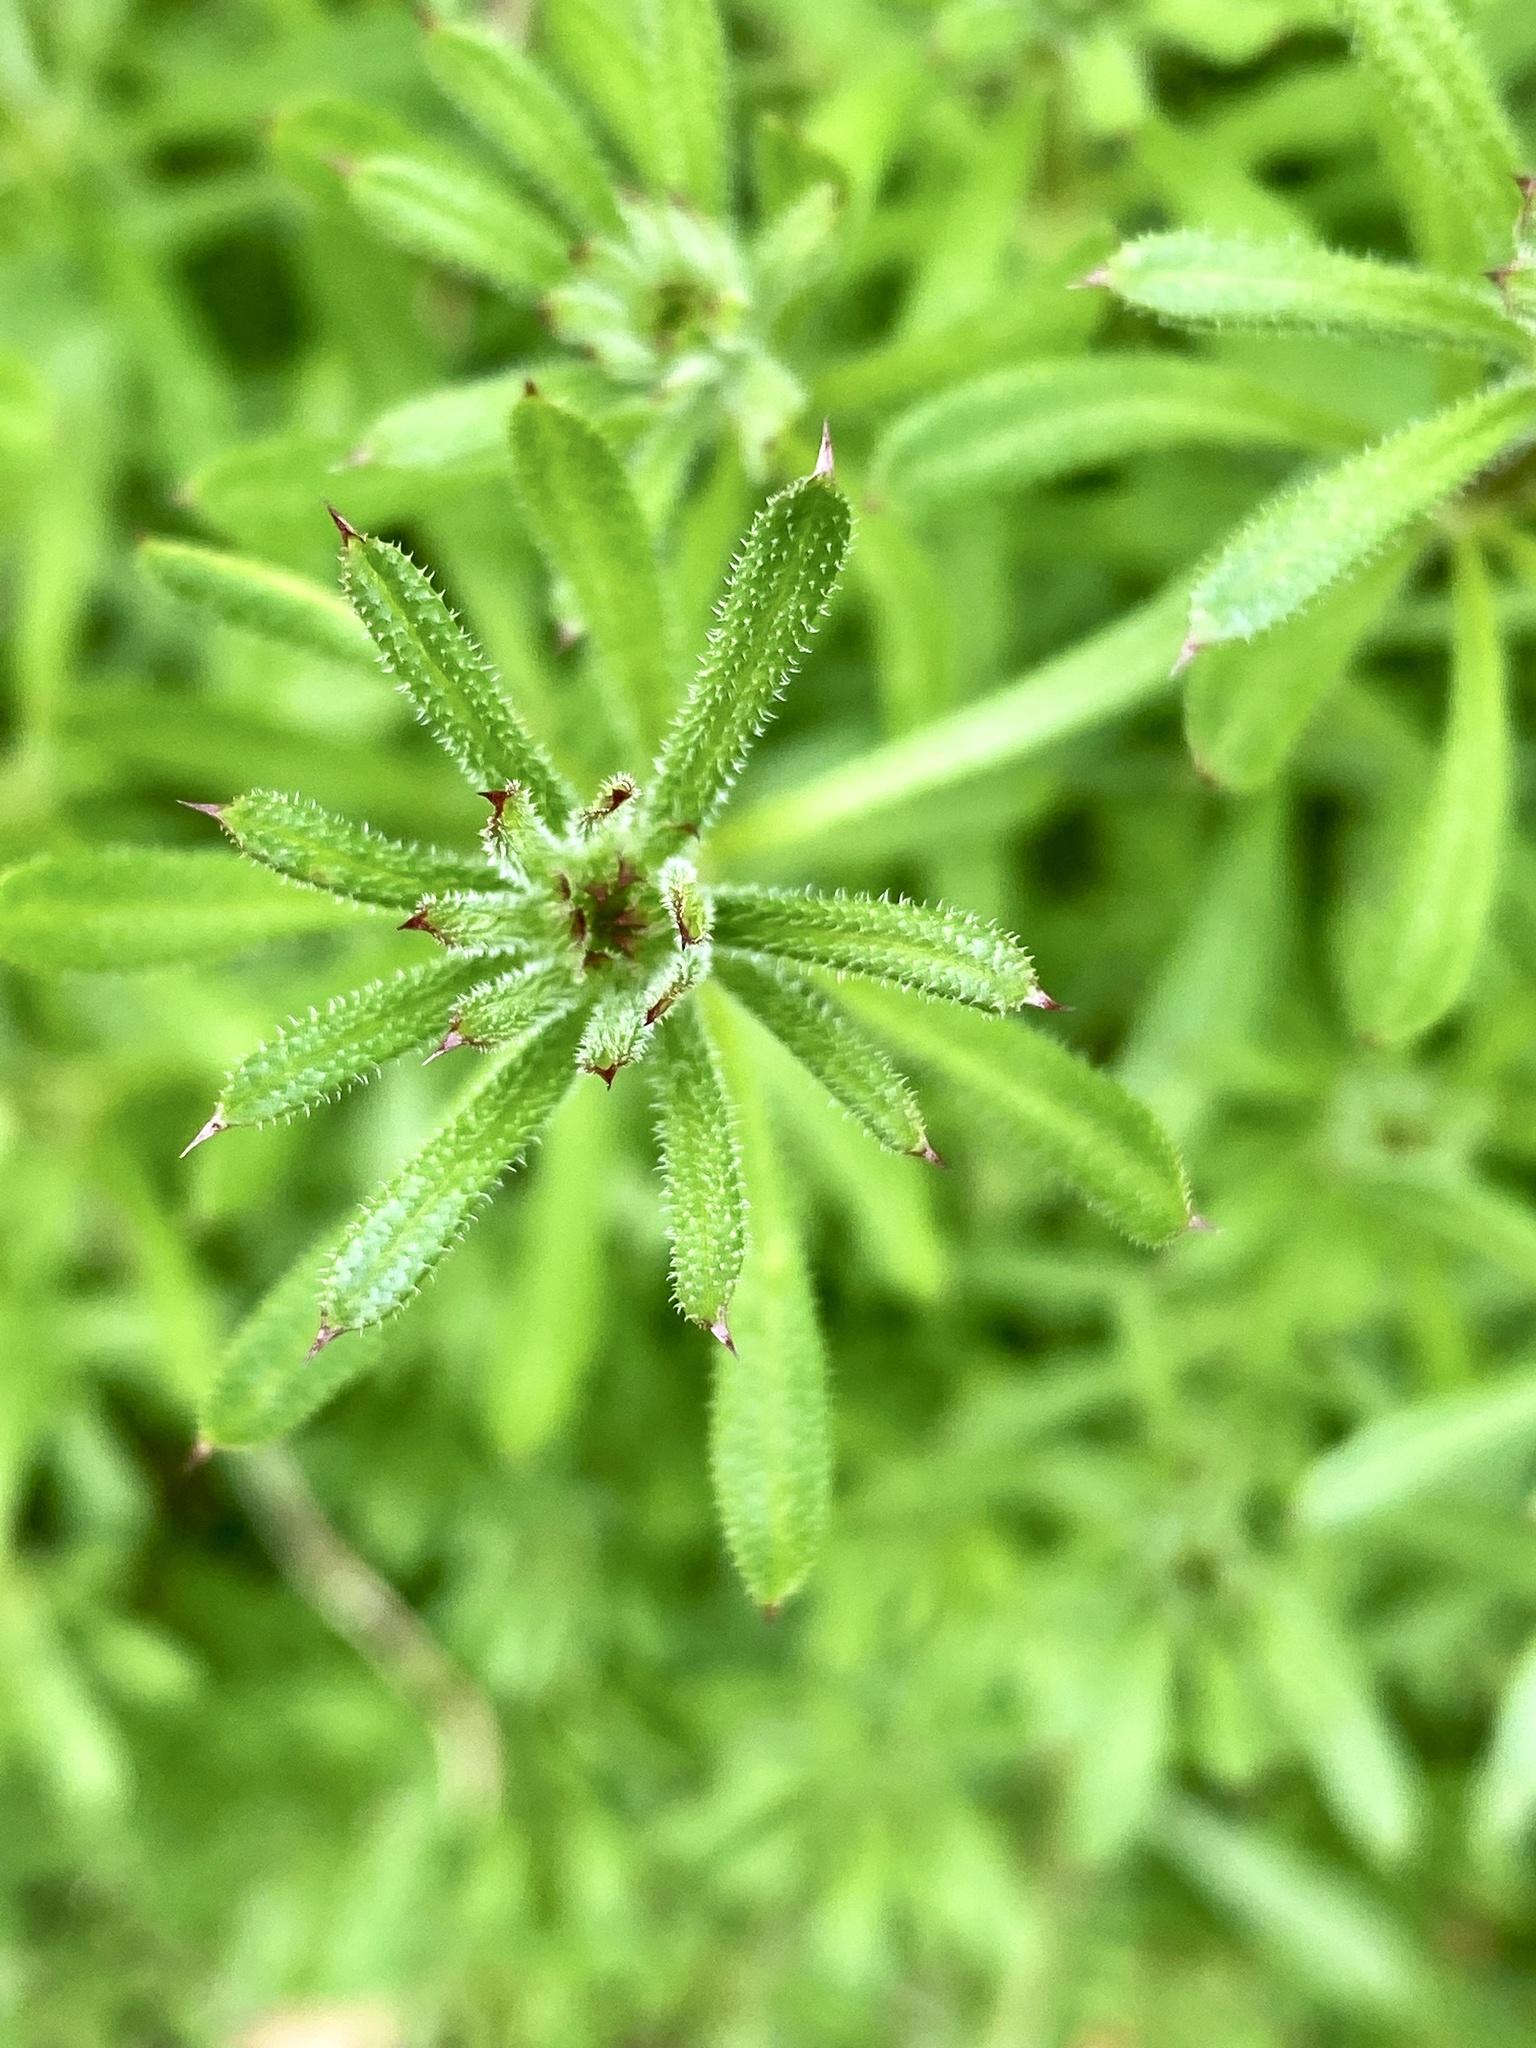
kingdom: Plantae
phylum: Tracheophyta
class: Magnoliopsida
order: Gentianales
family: Rubiaceae
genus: Galium
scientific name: Galium aparine
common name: Cleavers
